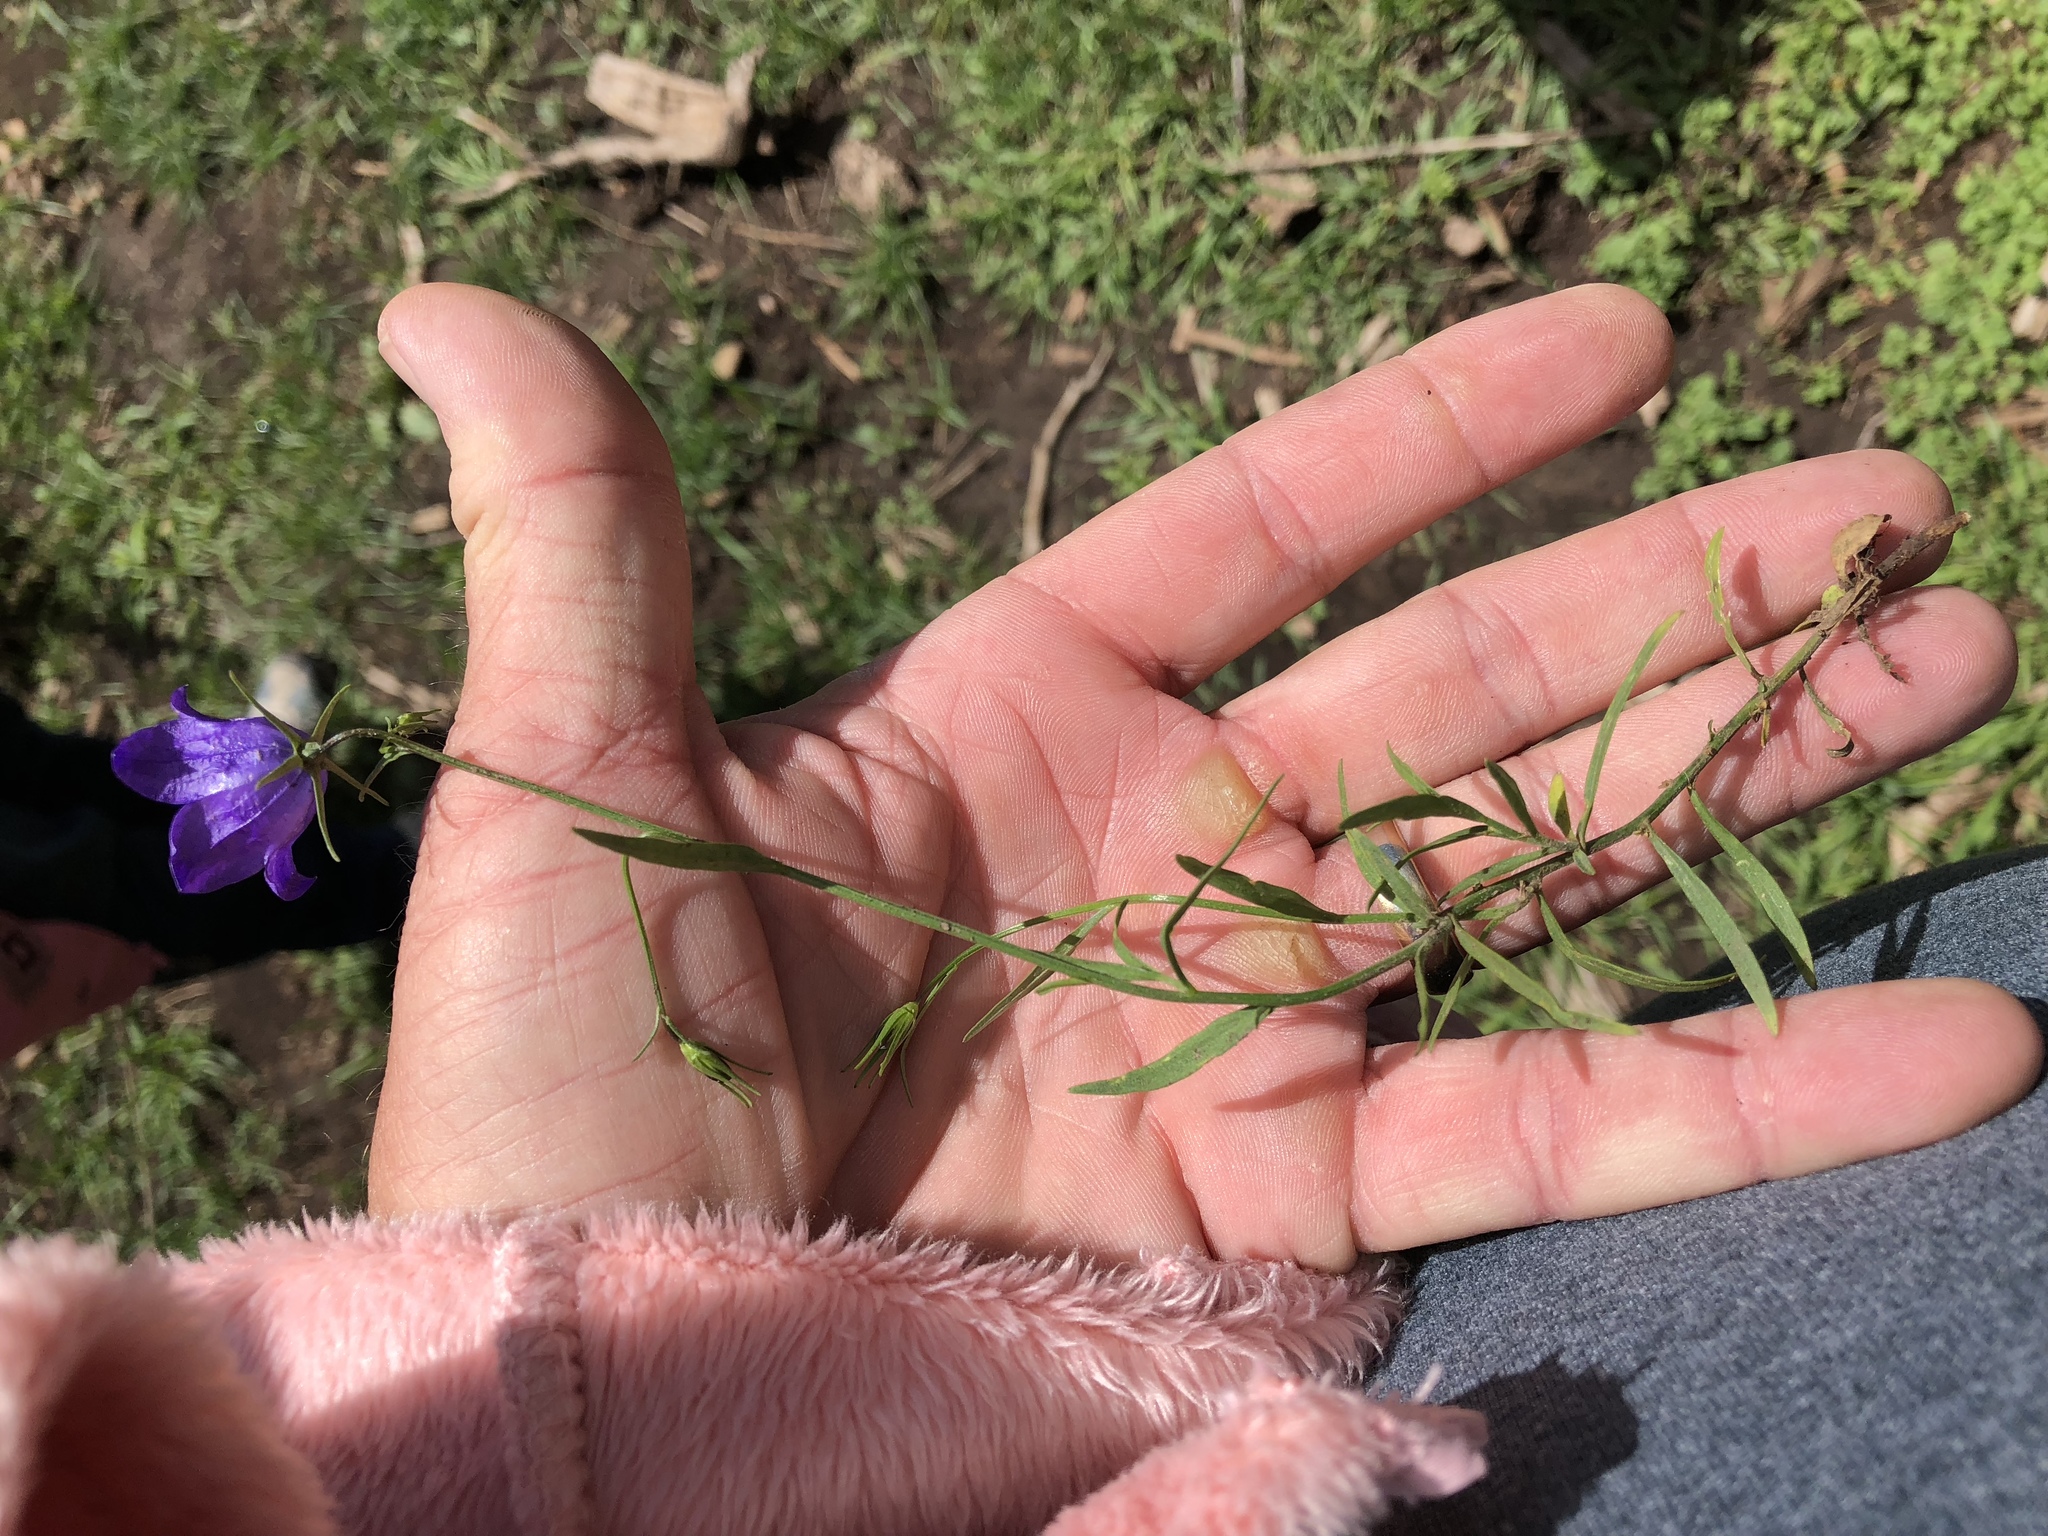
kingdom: Plantae
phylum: Tracheophyta
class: Magnoliopsida
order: Asterales
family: Campanulaceae
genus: Campanula
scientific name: Campanula petiolata
